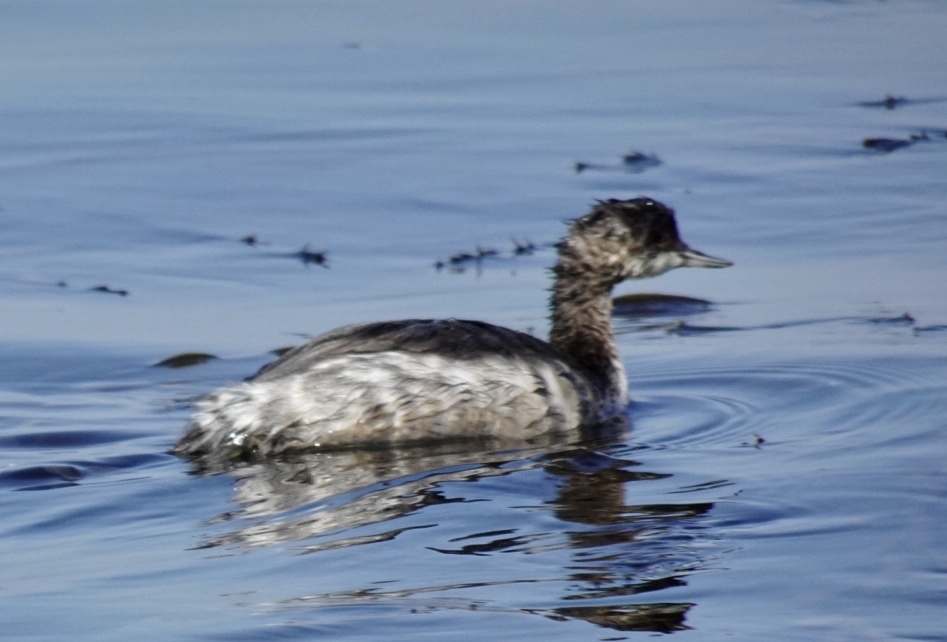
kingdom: Animalia
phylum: Chordata
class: Aves
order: Podicipediformes
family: Podicipedidae
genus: Podiceps
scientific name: Podiceps nigricollis
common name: Black-necked grebe
